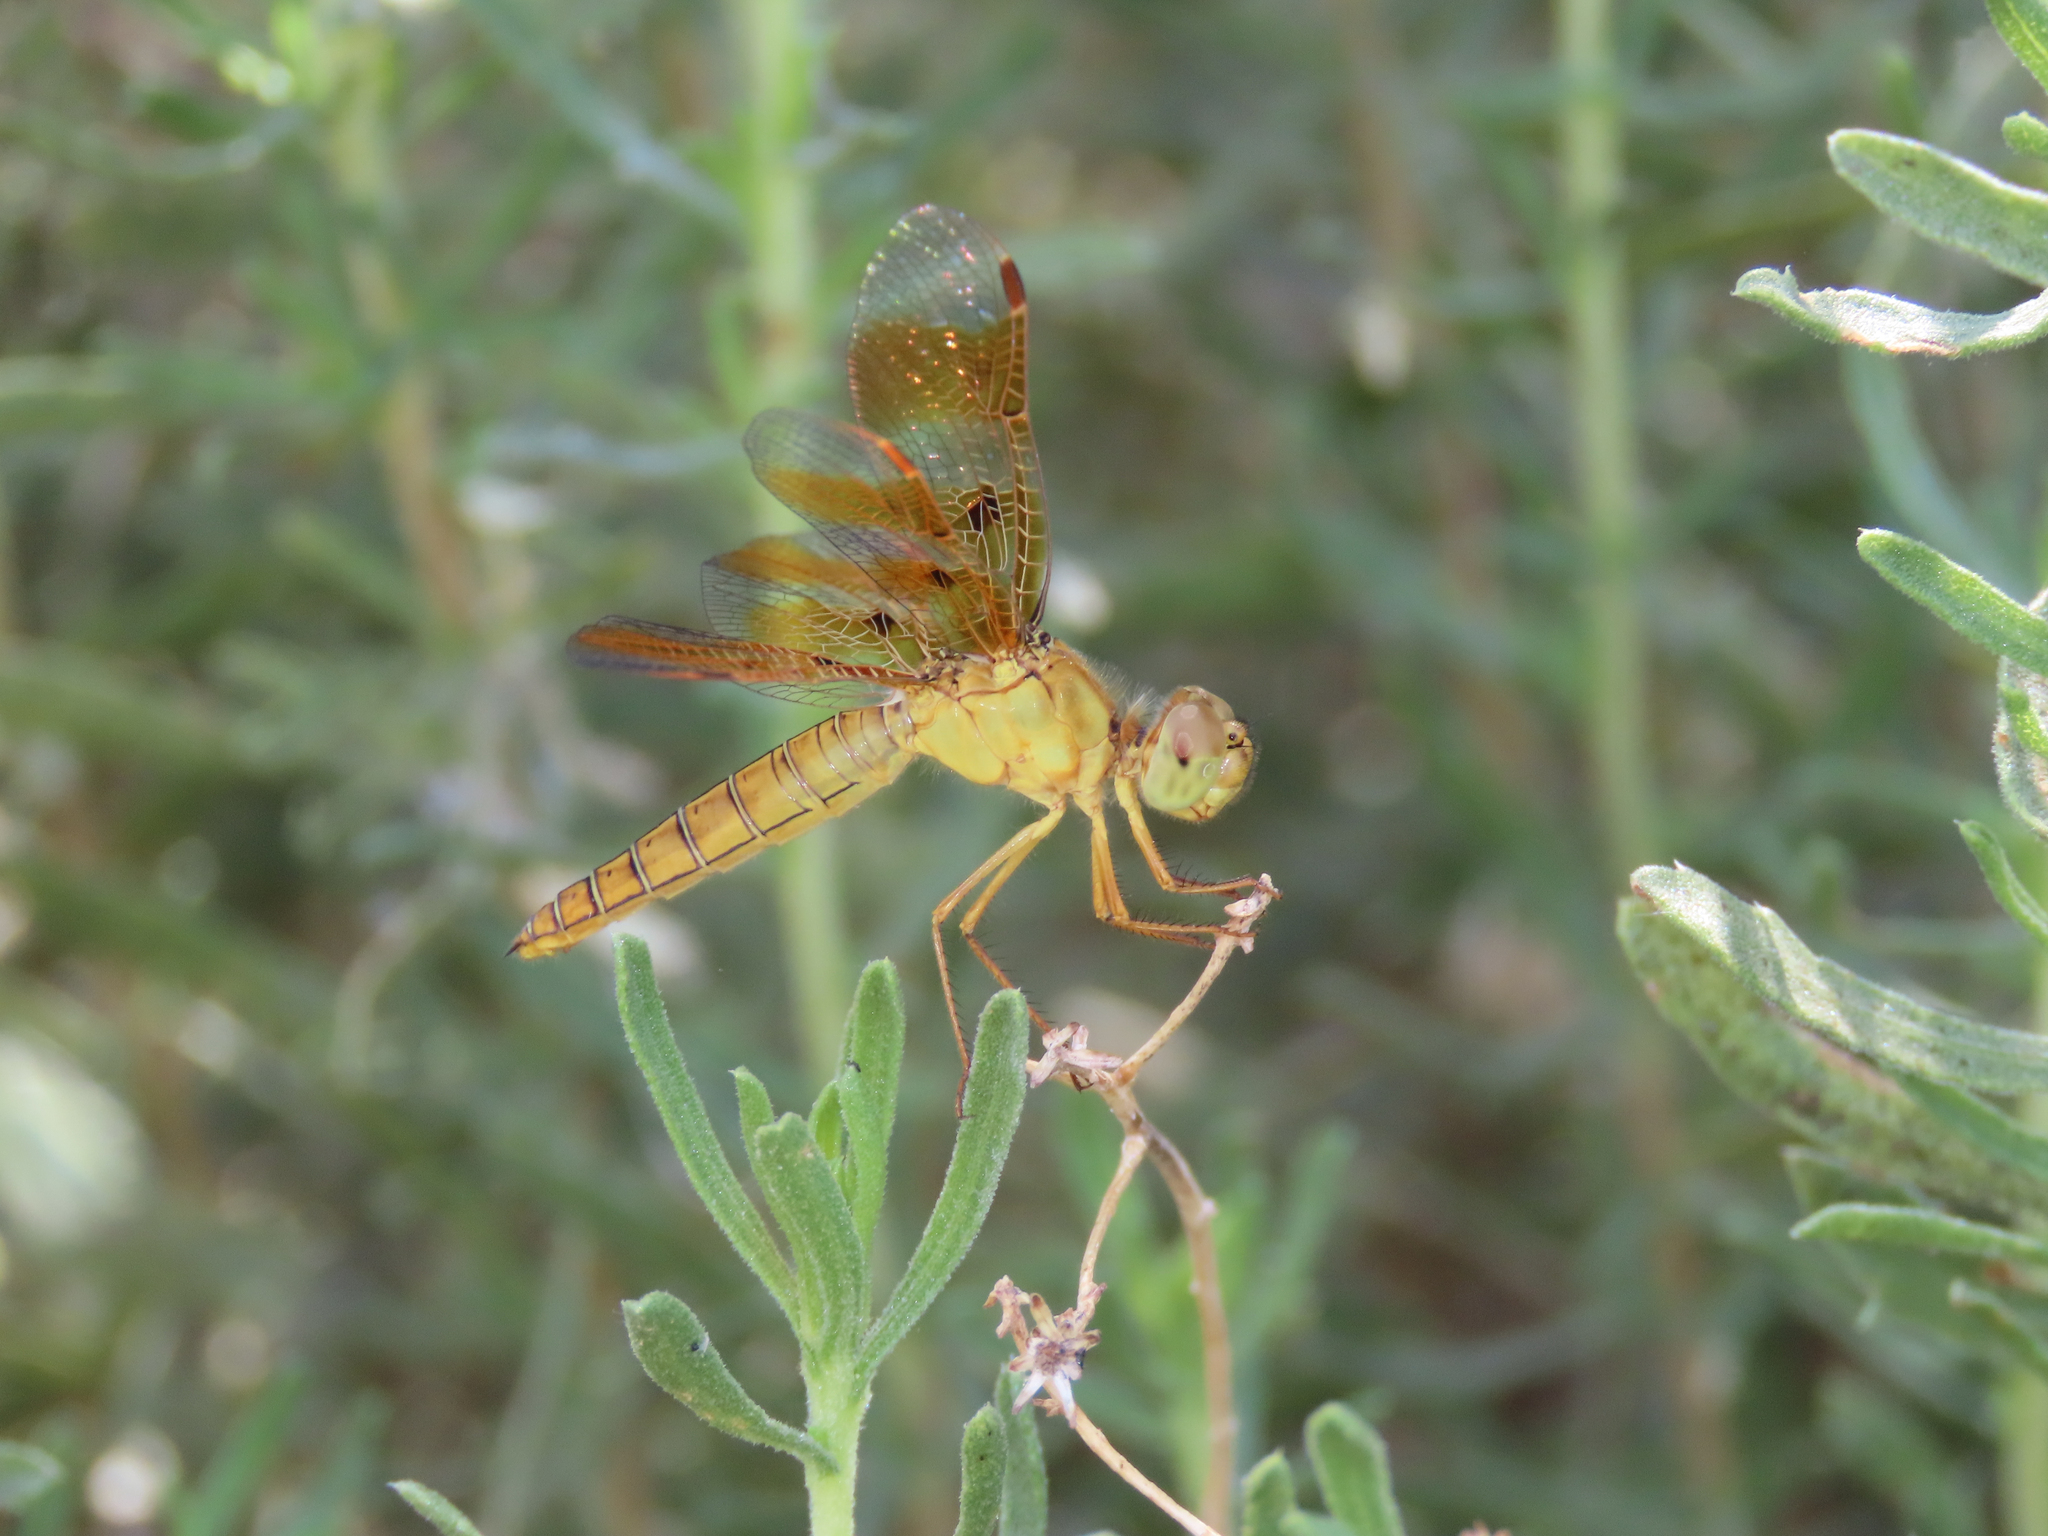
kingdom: Animalia
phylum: Arthropoda
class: Insecta
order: Odonata
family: Libellulidae
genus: Perithemis
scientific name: Perithemis intensa
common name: Mexican amberwing
